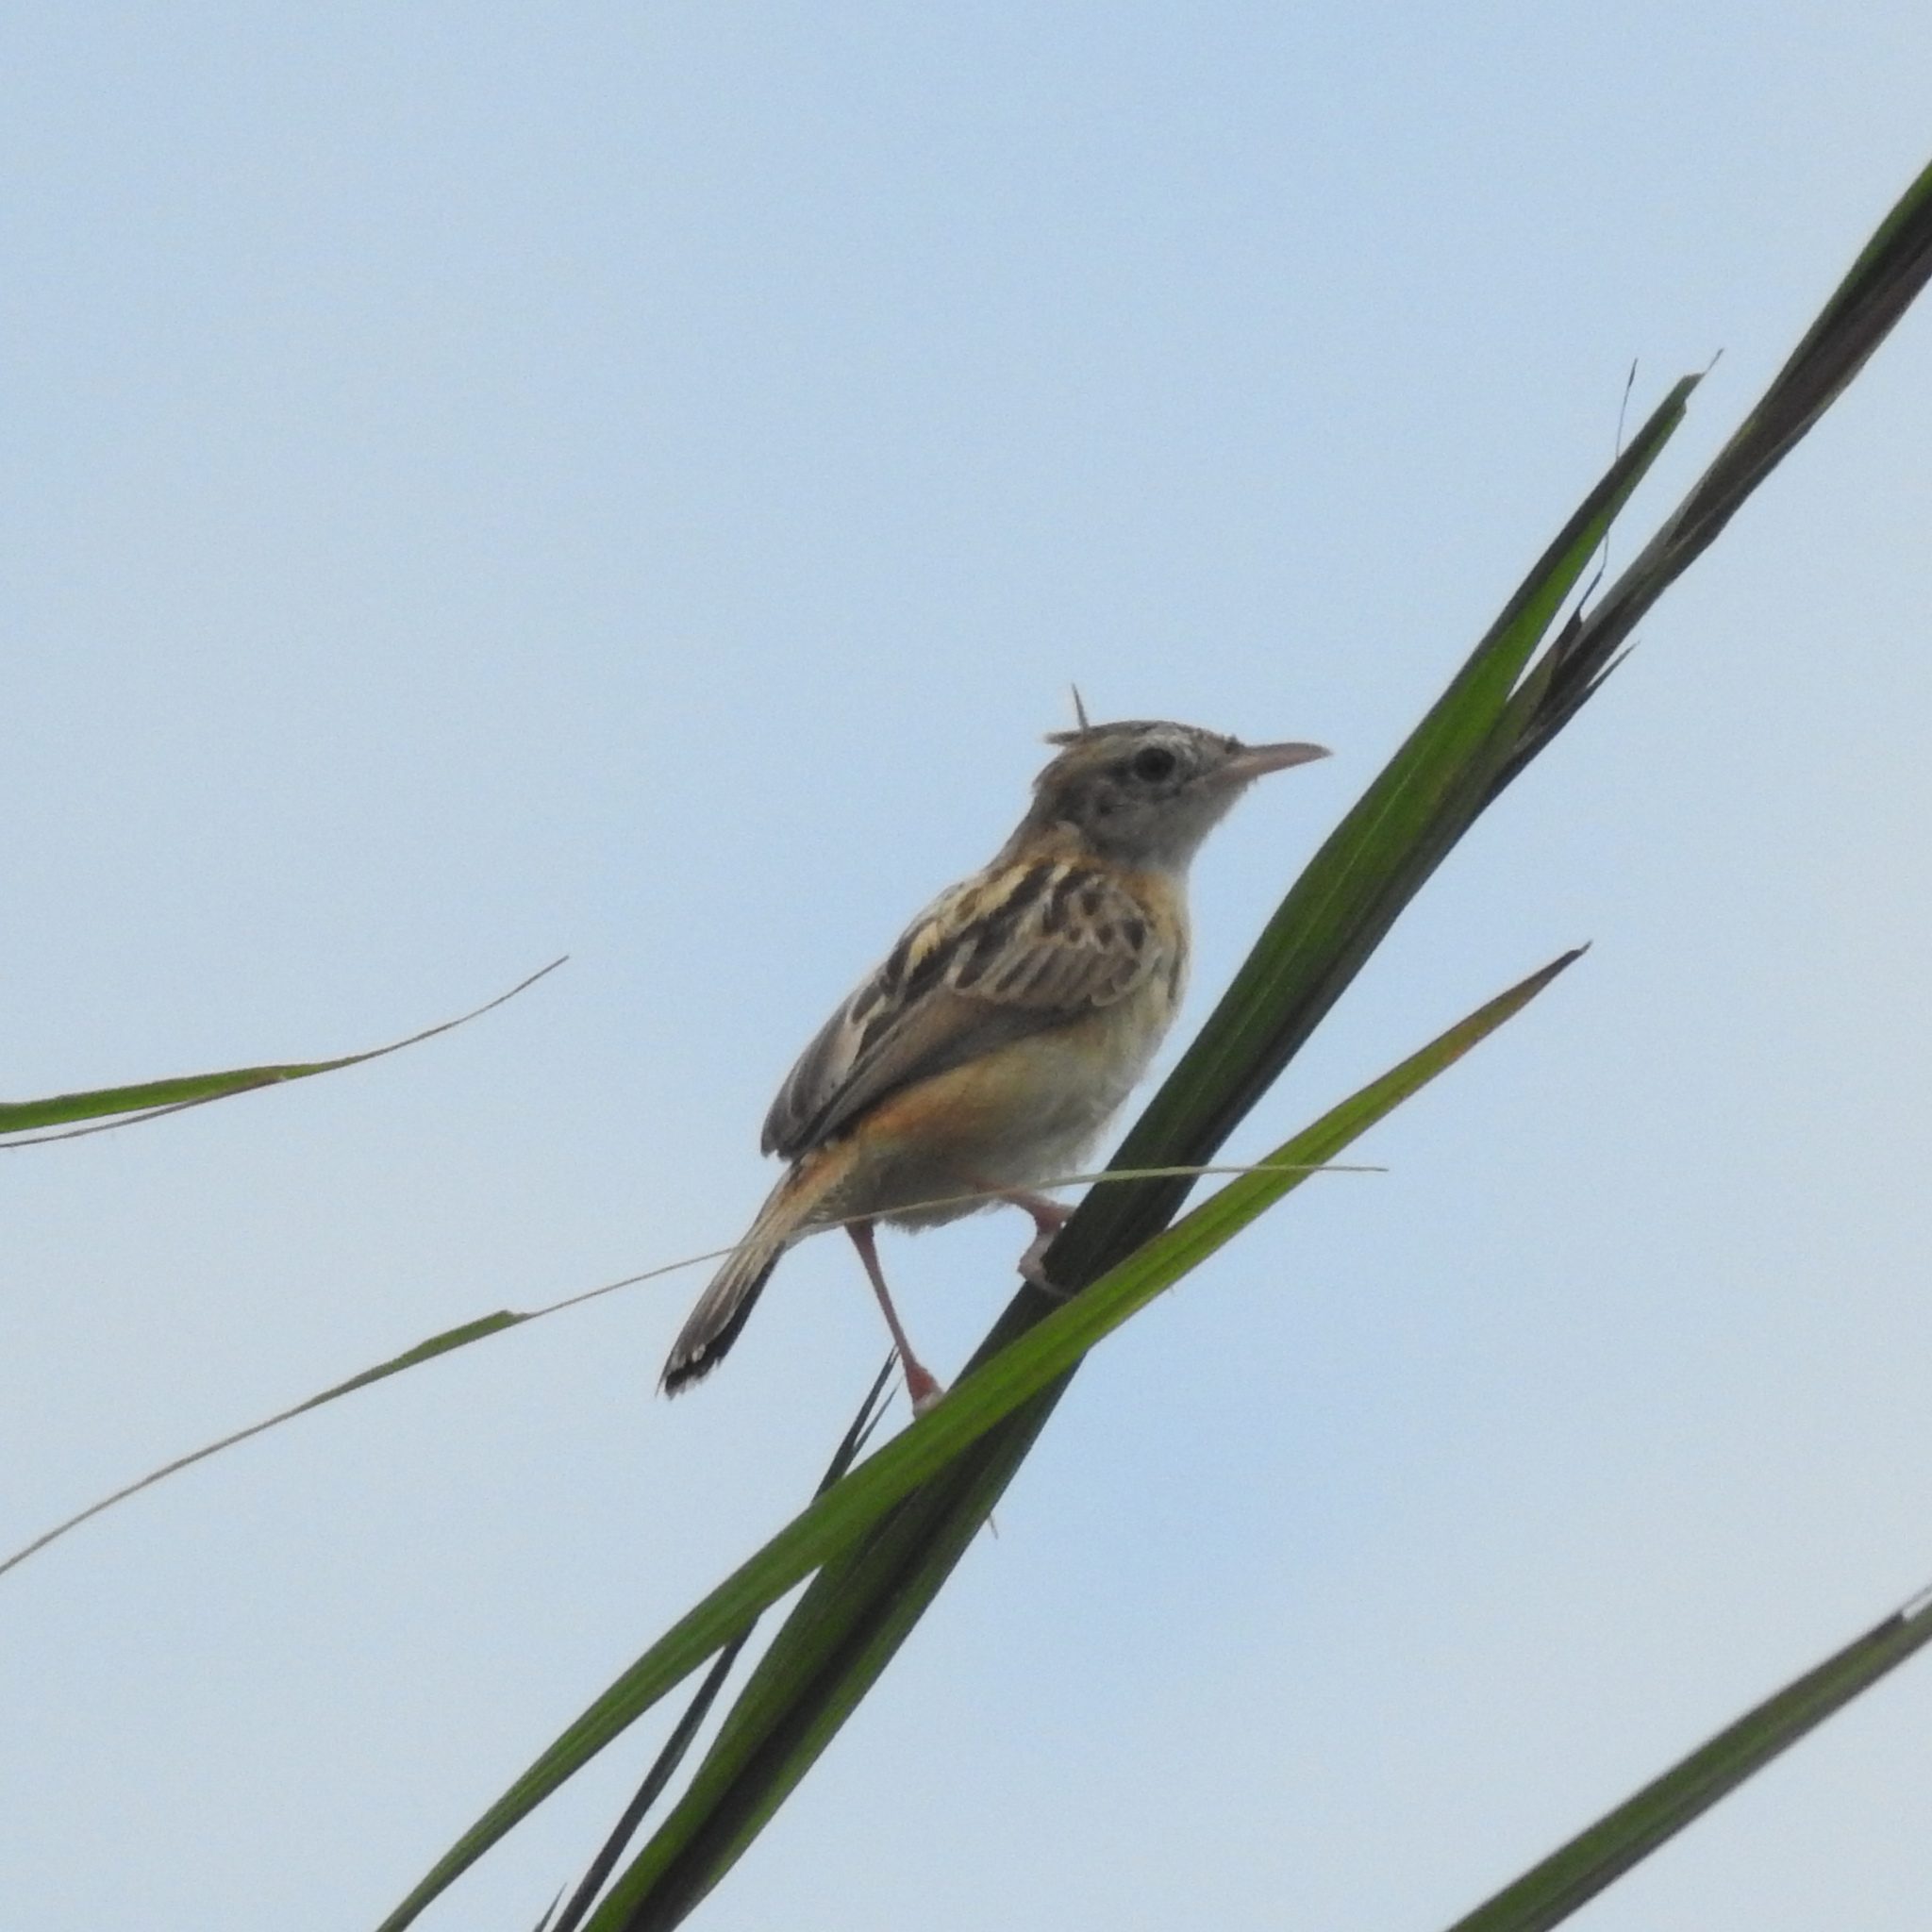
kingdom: Animalia
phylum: Chordata
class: Aves
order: Passeriformes
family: Cisticolidae
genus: Cisticola
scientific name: Cisticola juncidis
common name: Zitting cisticola
